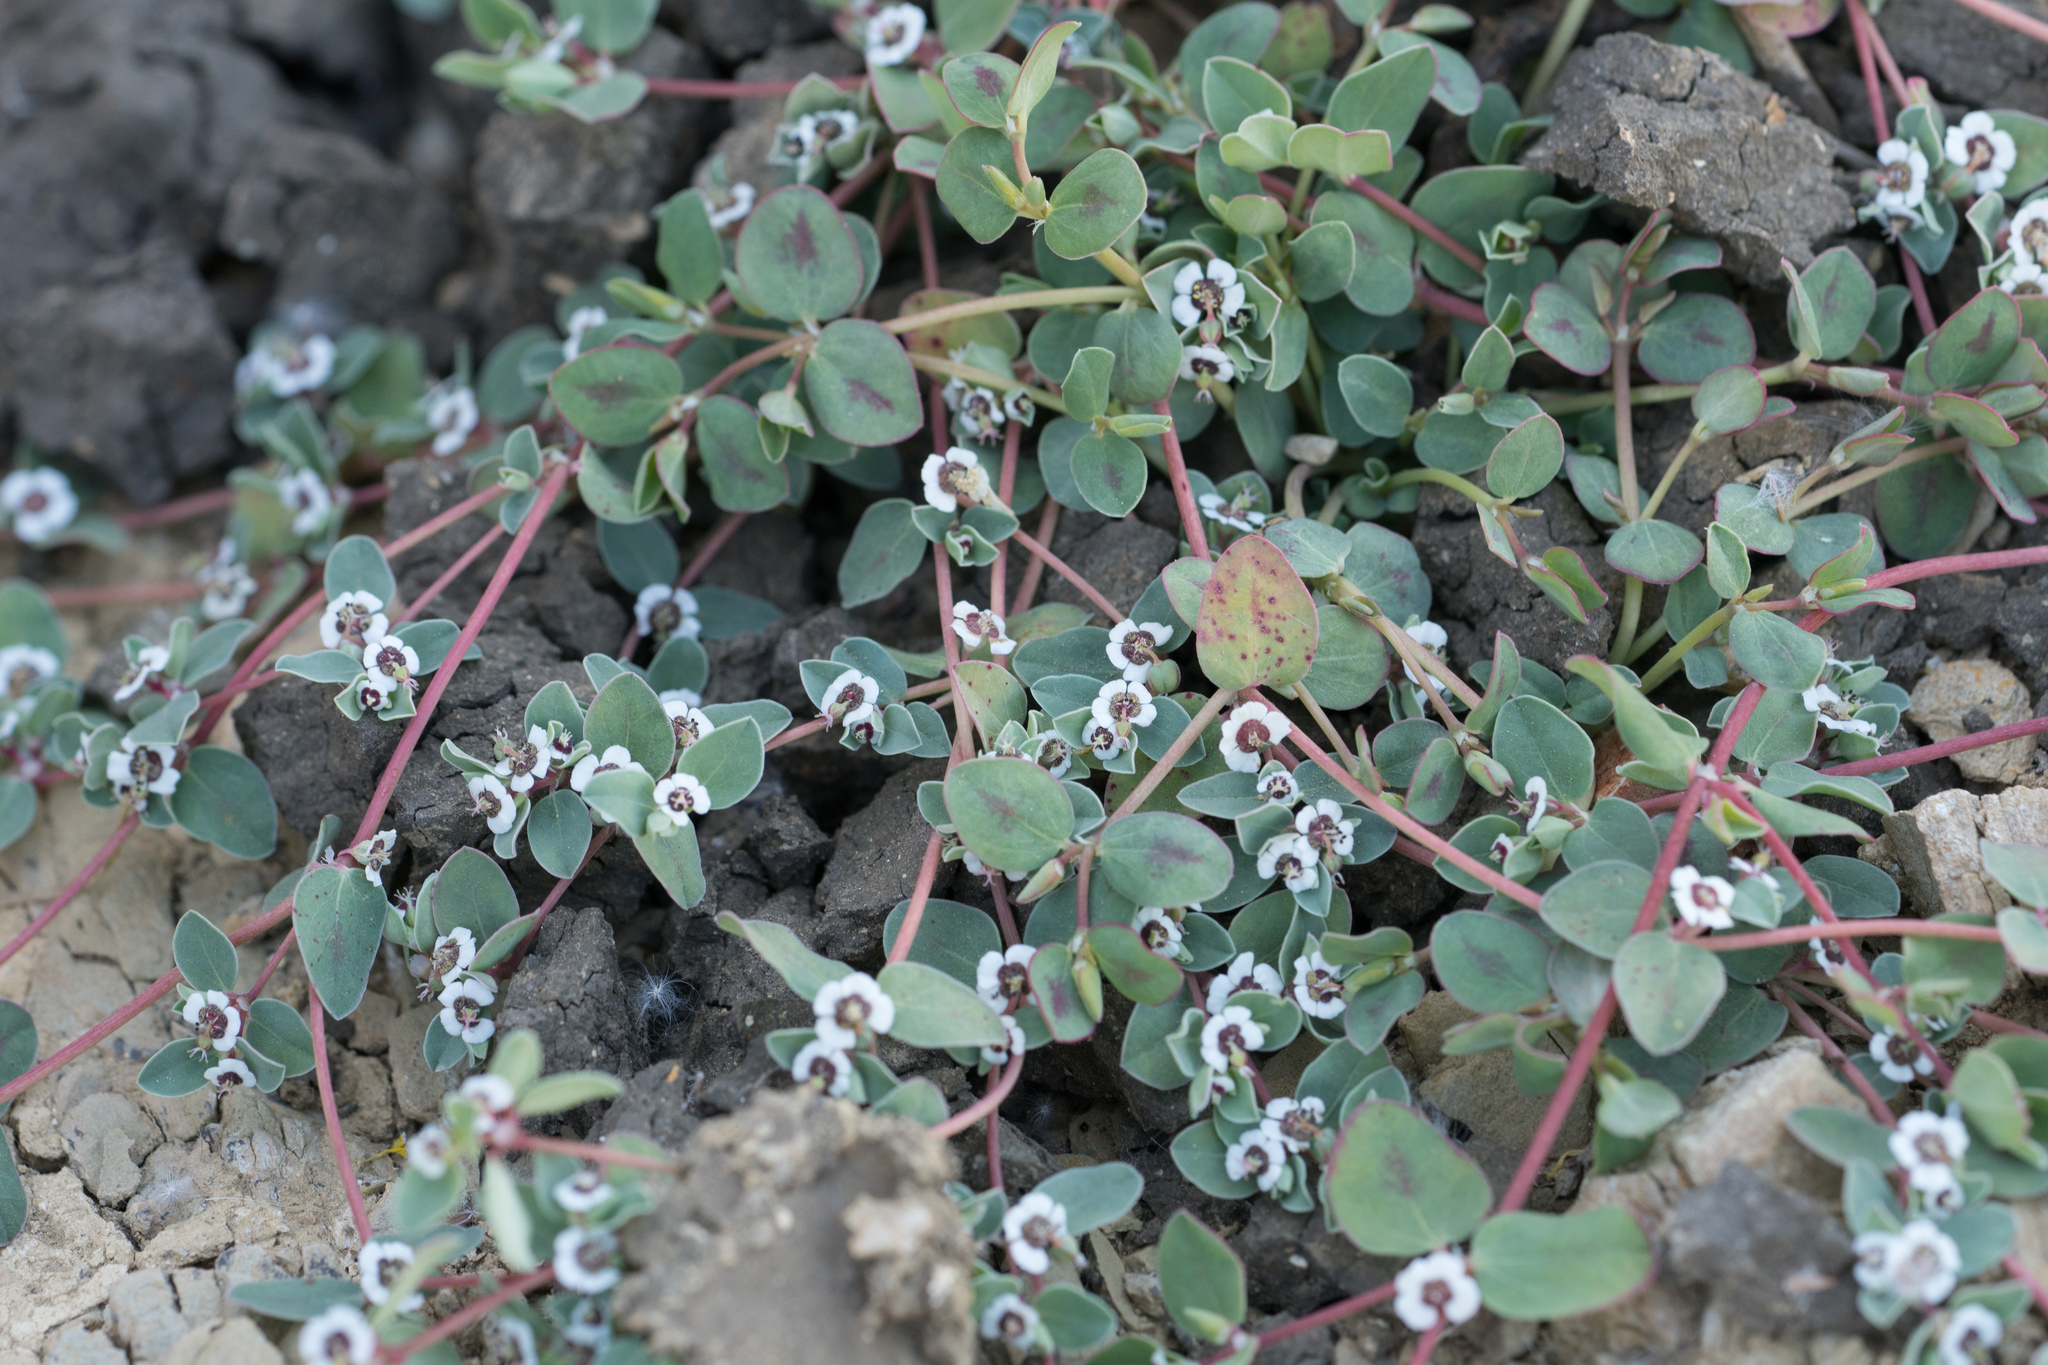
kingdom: Plantae
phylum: Tracheophyta
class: Magnoliopsida
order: Malpighiales
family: Euphorbiaceae
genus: Euphorbia
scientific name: Euphorbia albomarginata
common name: Whitemargin sandmat
